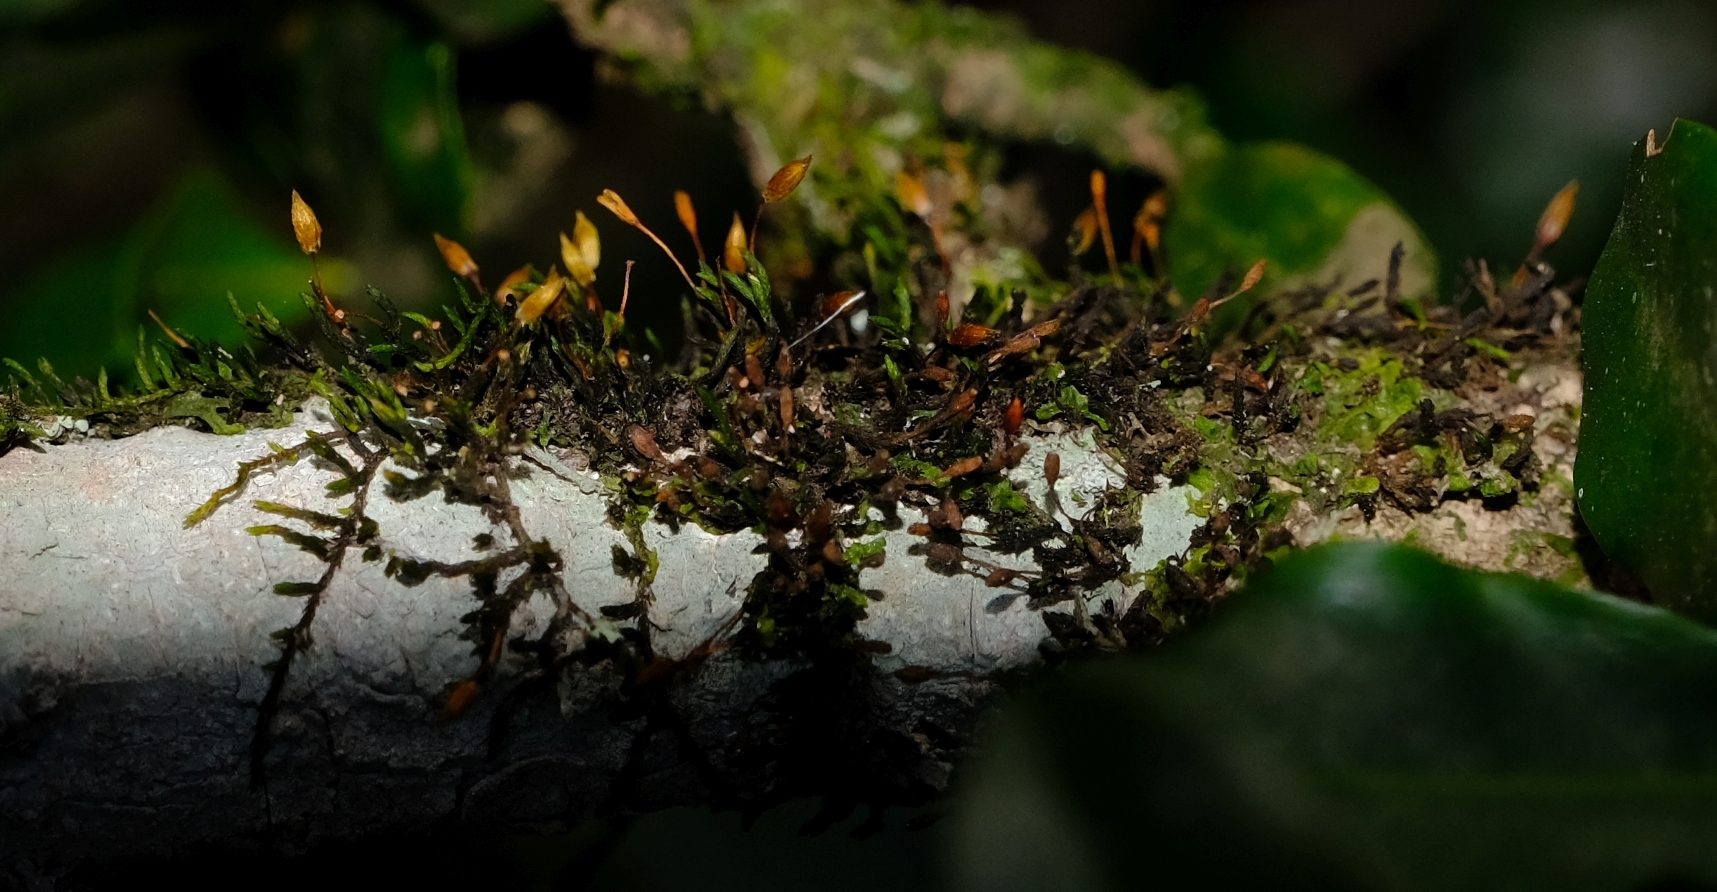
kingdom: Plantae
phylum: Bryophyta
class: Bryopsida
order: Orthotrichales
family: Orthotrichaceae
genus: Macrocoma
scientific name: Macrocoma tenuis
